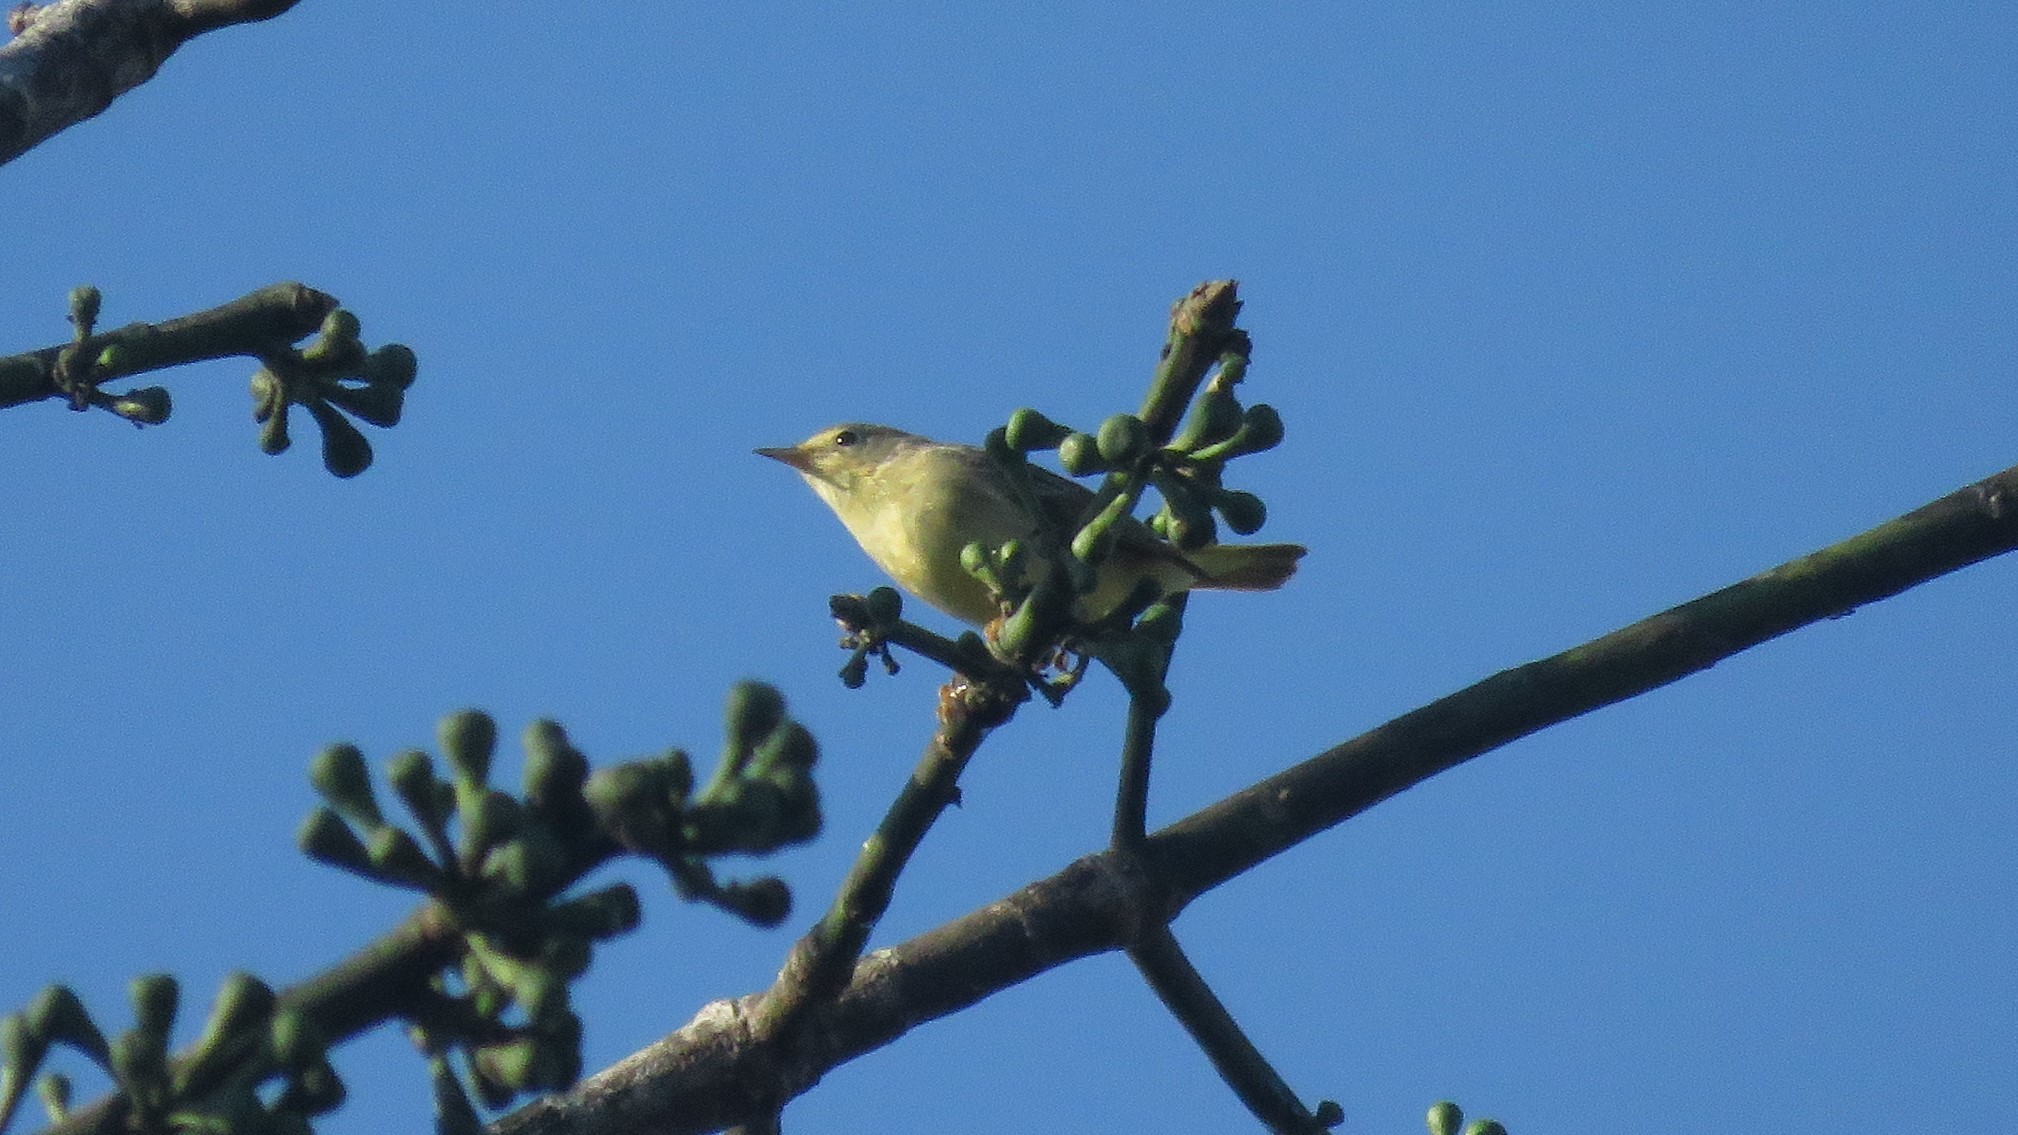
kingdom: Animalia
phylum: Chordata
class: Aves
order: Passeriformes
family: Parulidae
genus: Setophaga
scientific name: Setophaga petechia
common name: Yellow warbler
